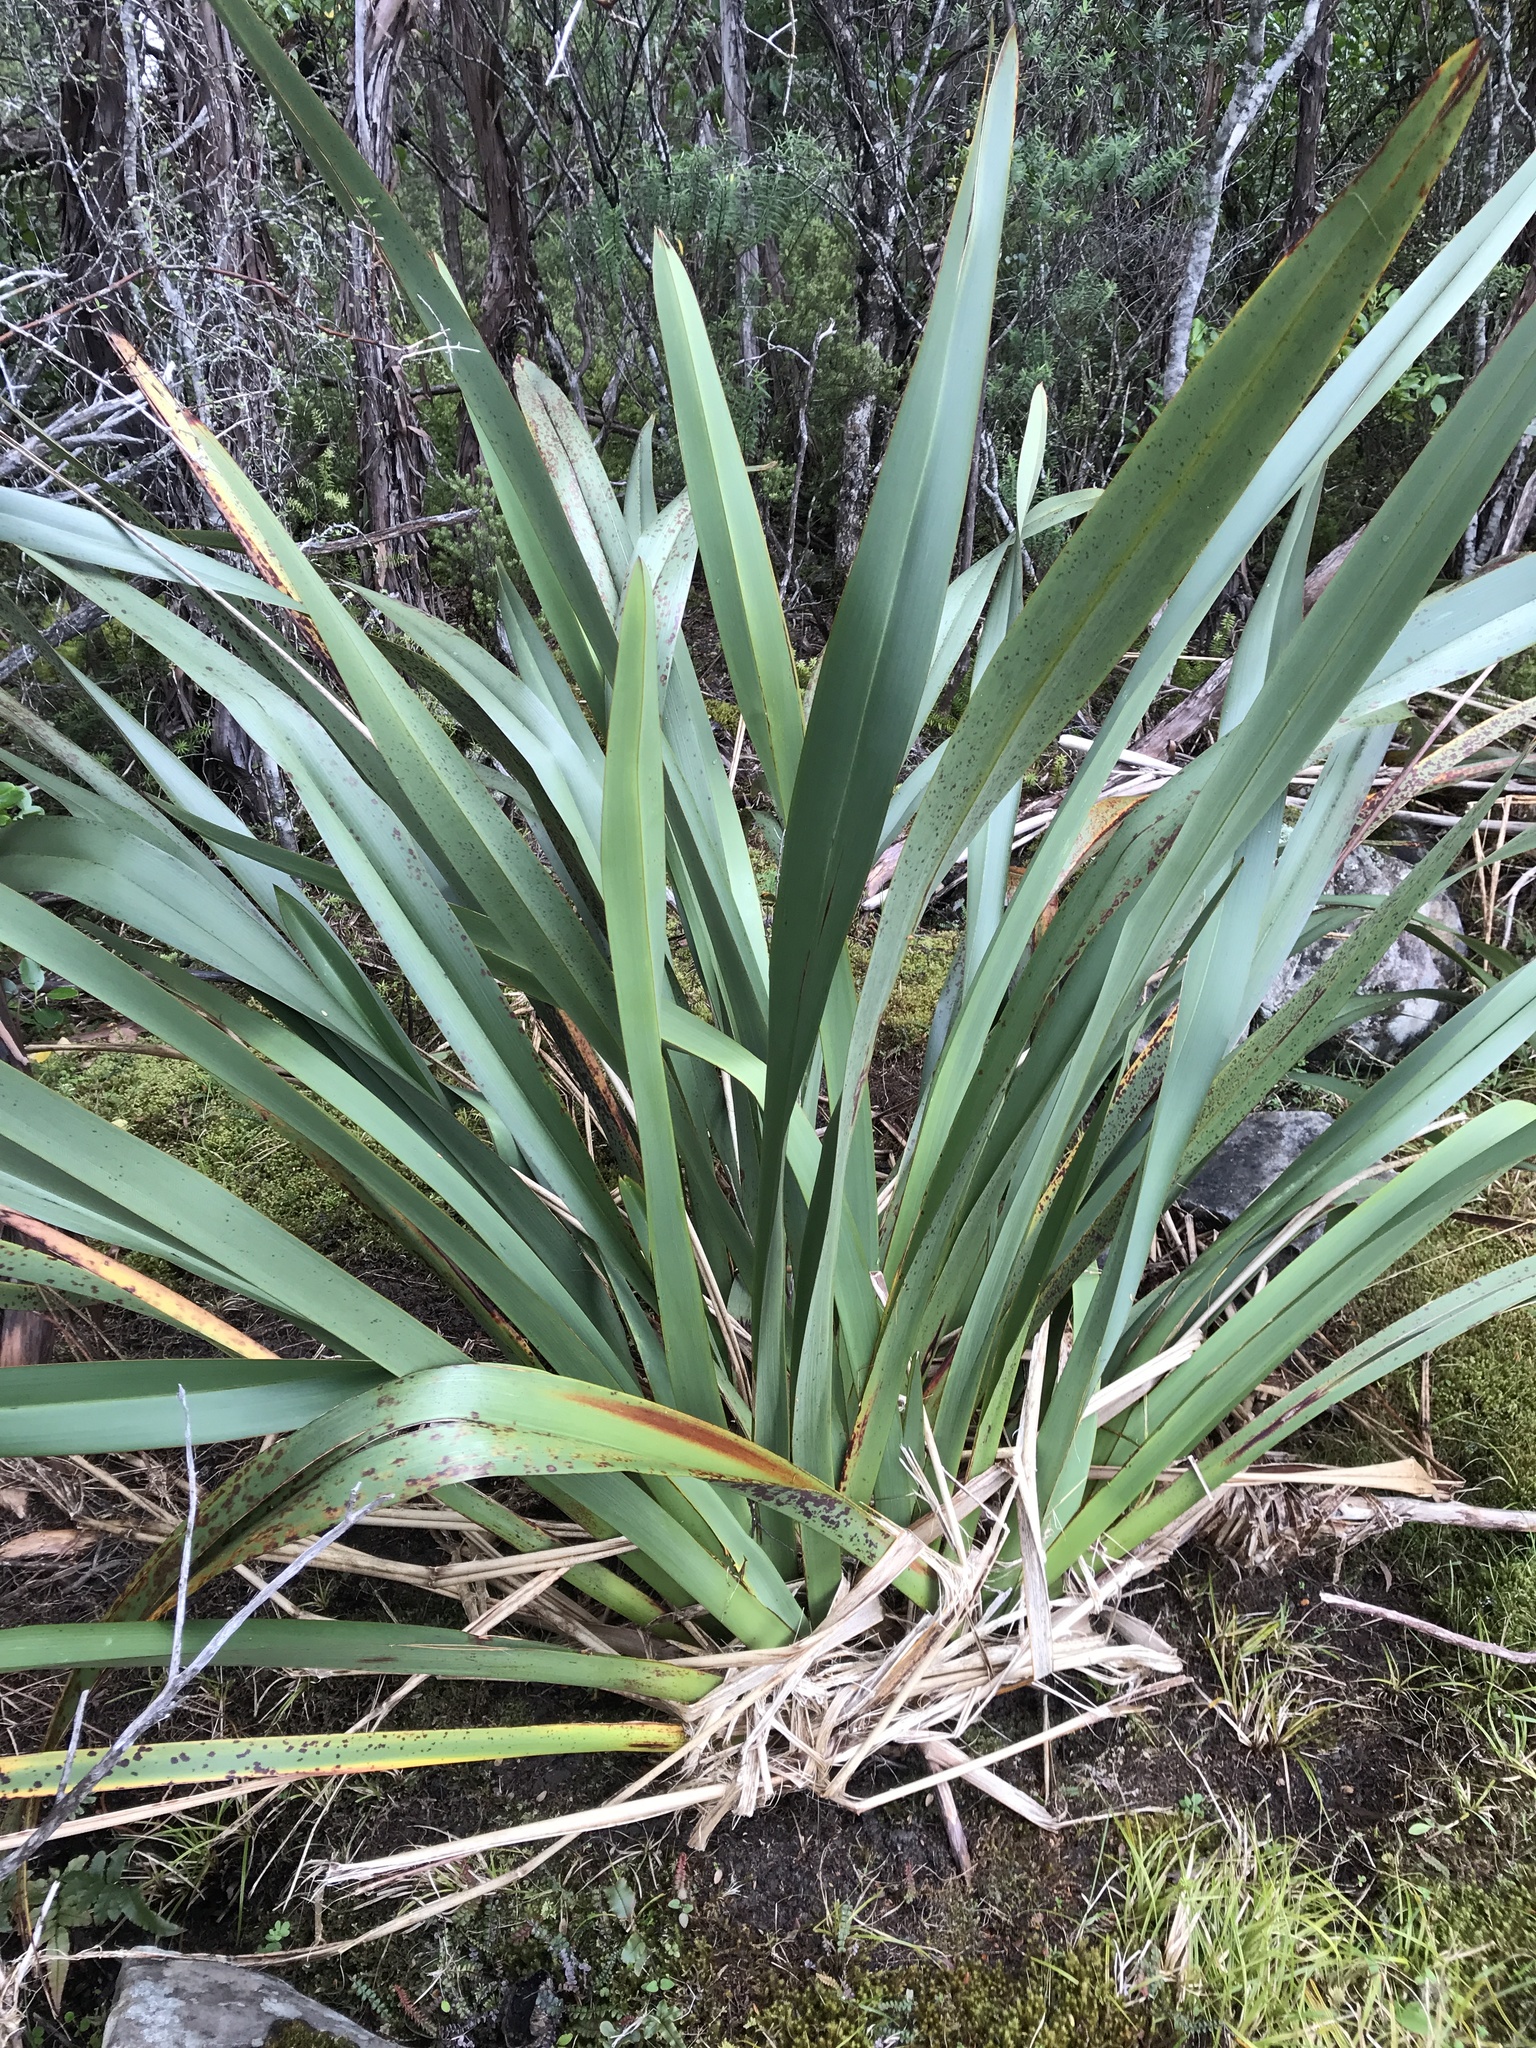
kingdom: Plantae
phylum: Tracheophyta
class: Liliopsida
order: Asparagales
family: Asphodelaceae
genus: Phormium
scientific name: Phormium tenax
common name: New zealand flax
